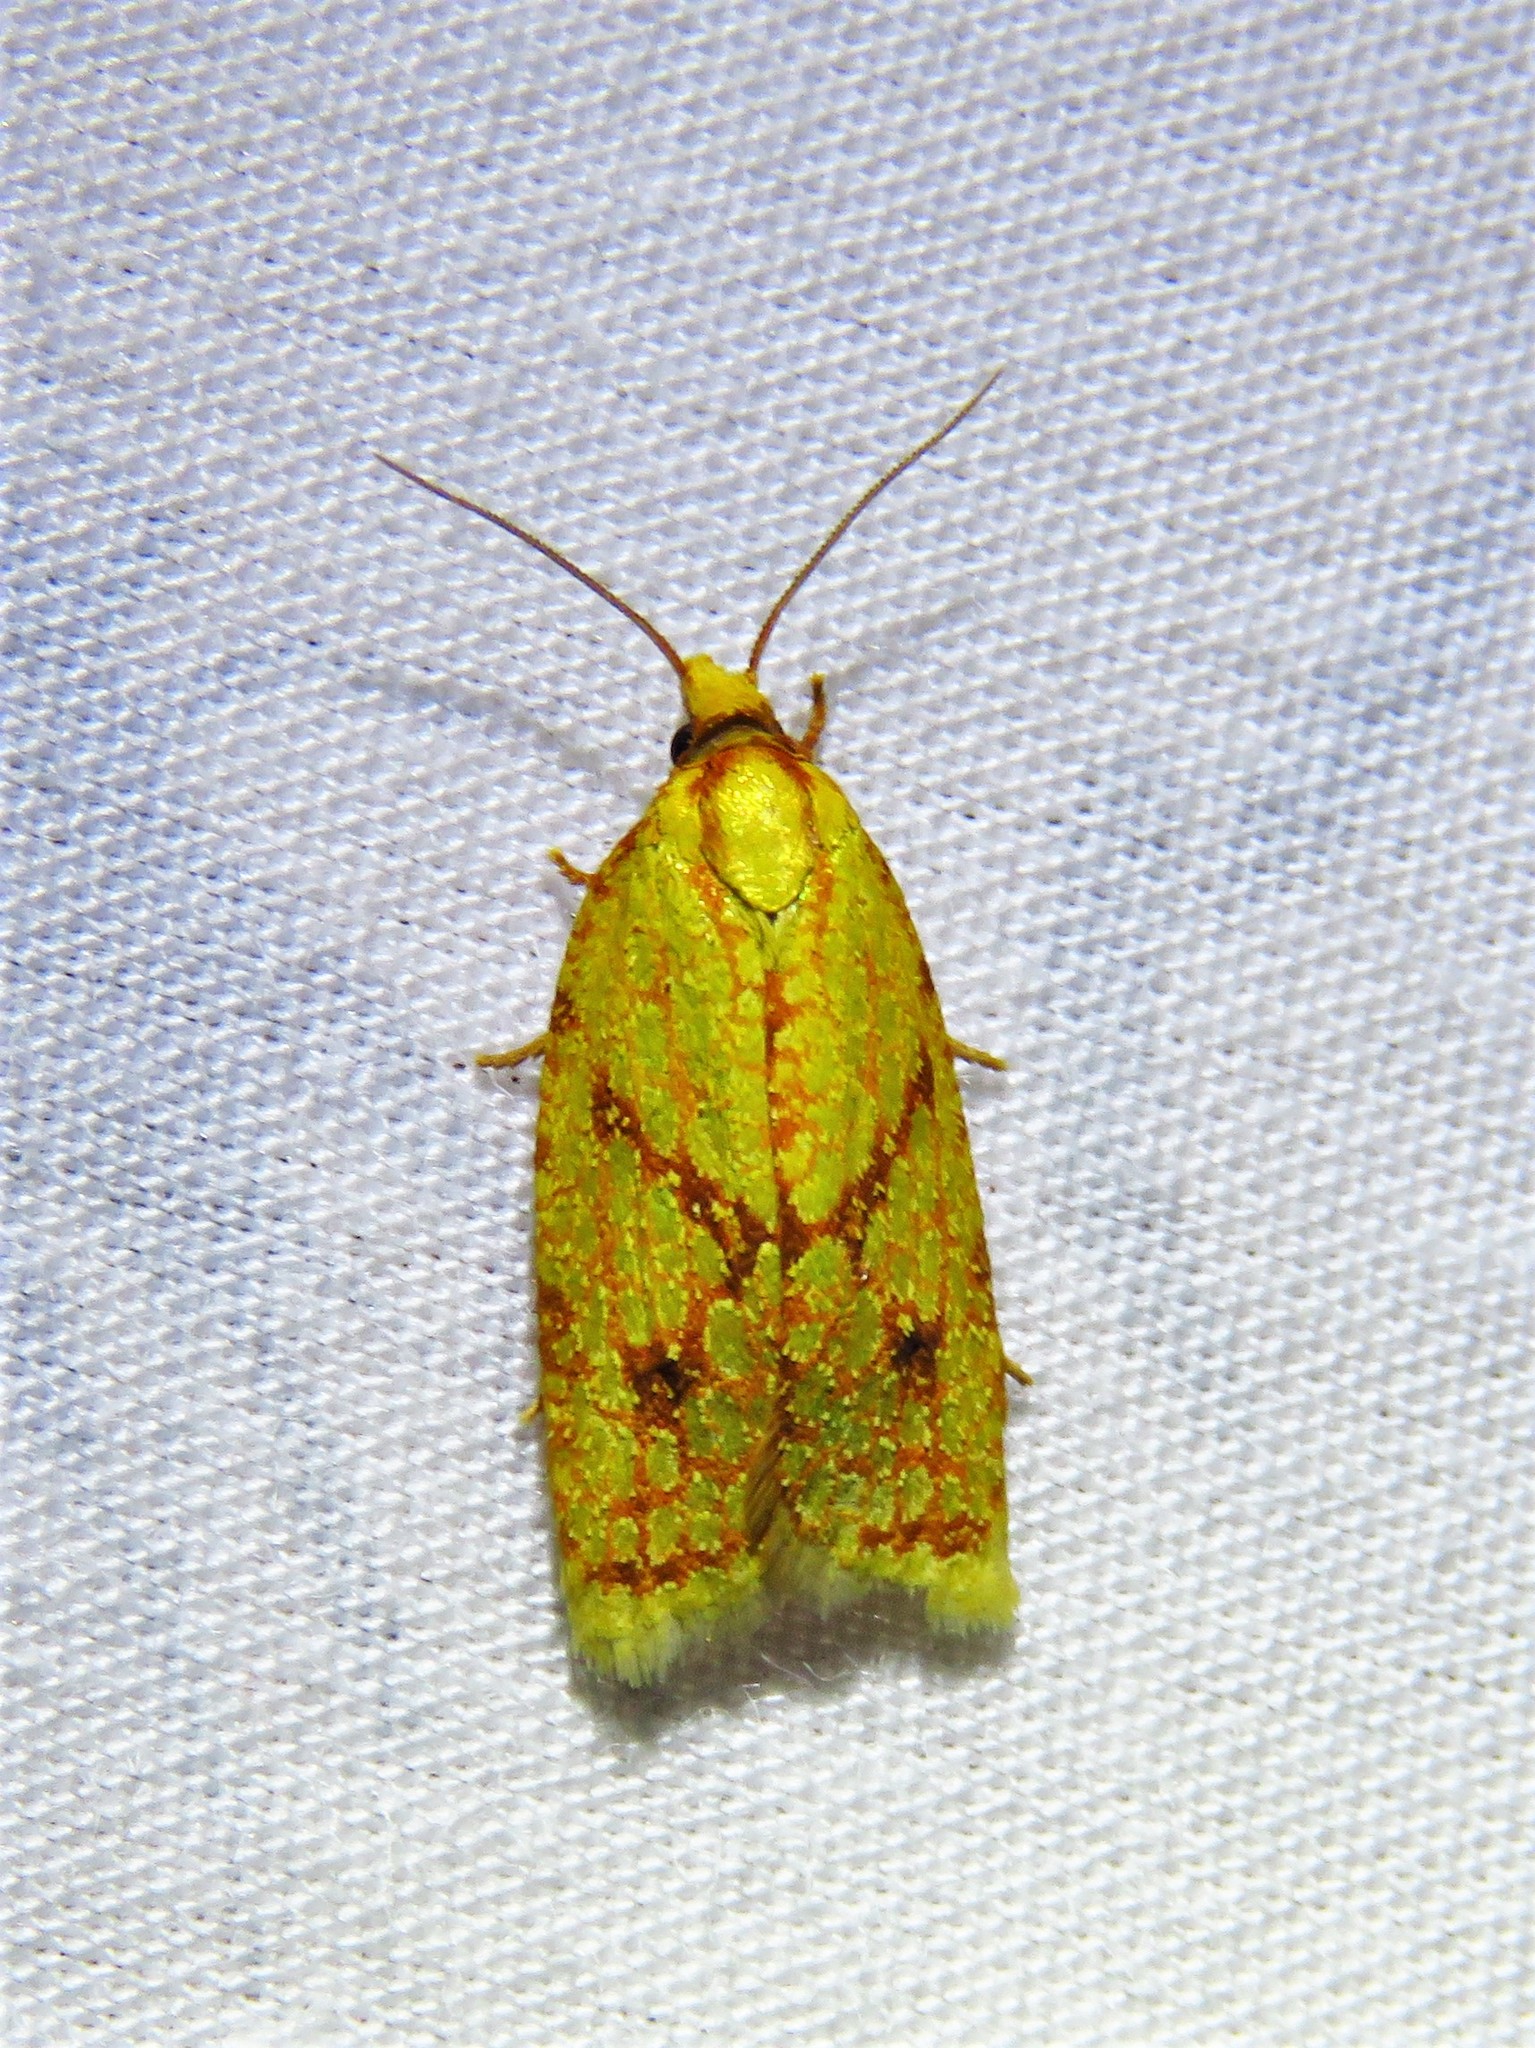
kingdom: Animalia
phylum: Arthropoda
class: Insecta
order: Lepidoptera
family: Tortricidae
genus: Sparganothis
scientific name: Sparganothis sulfureana
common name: Sparganothis fruitworm moth
